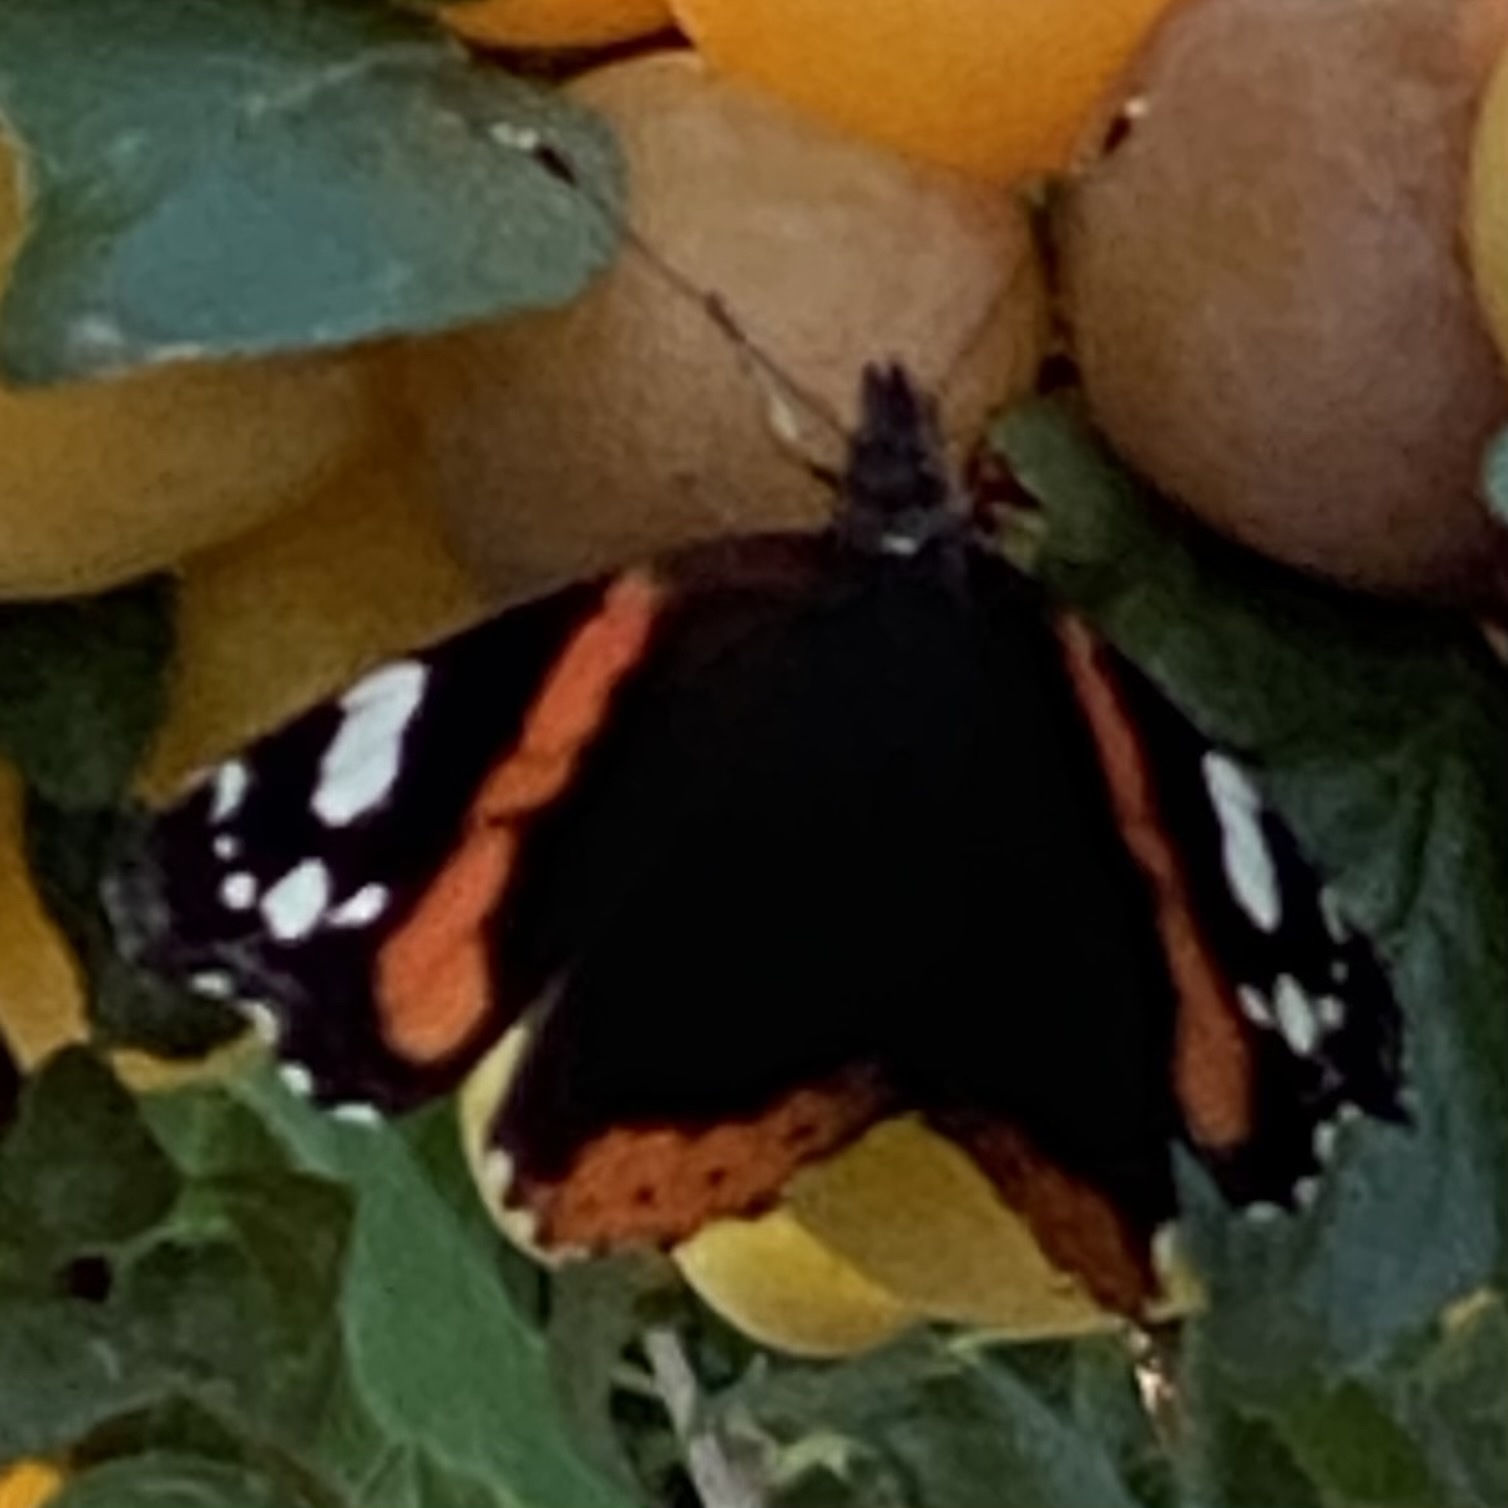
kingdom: Animalia
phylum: Arthropoda
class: Insecta
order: Lepidoptera
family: Nymphalidae
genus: Vanessa
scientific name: Vanessa atalanta
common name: Red admiral
